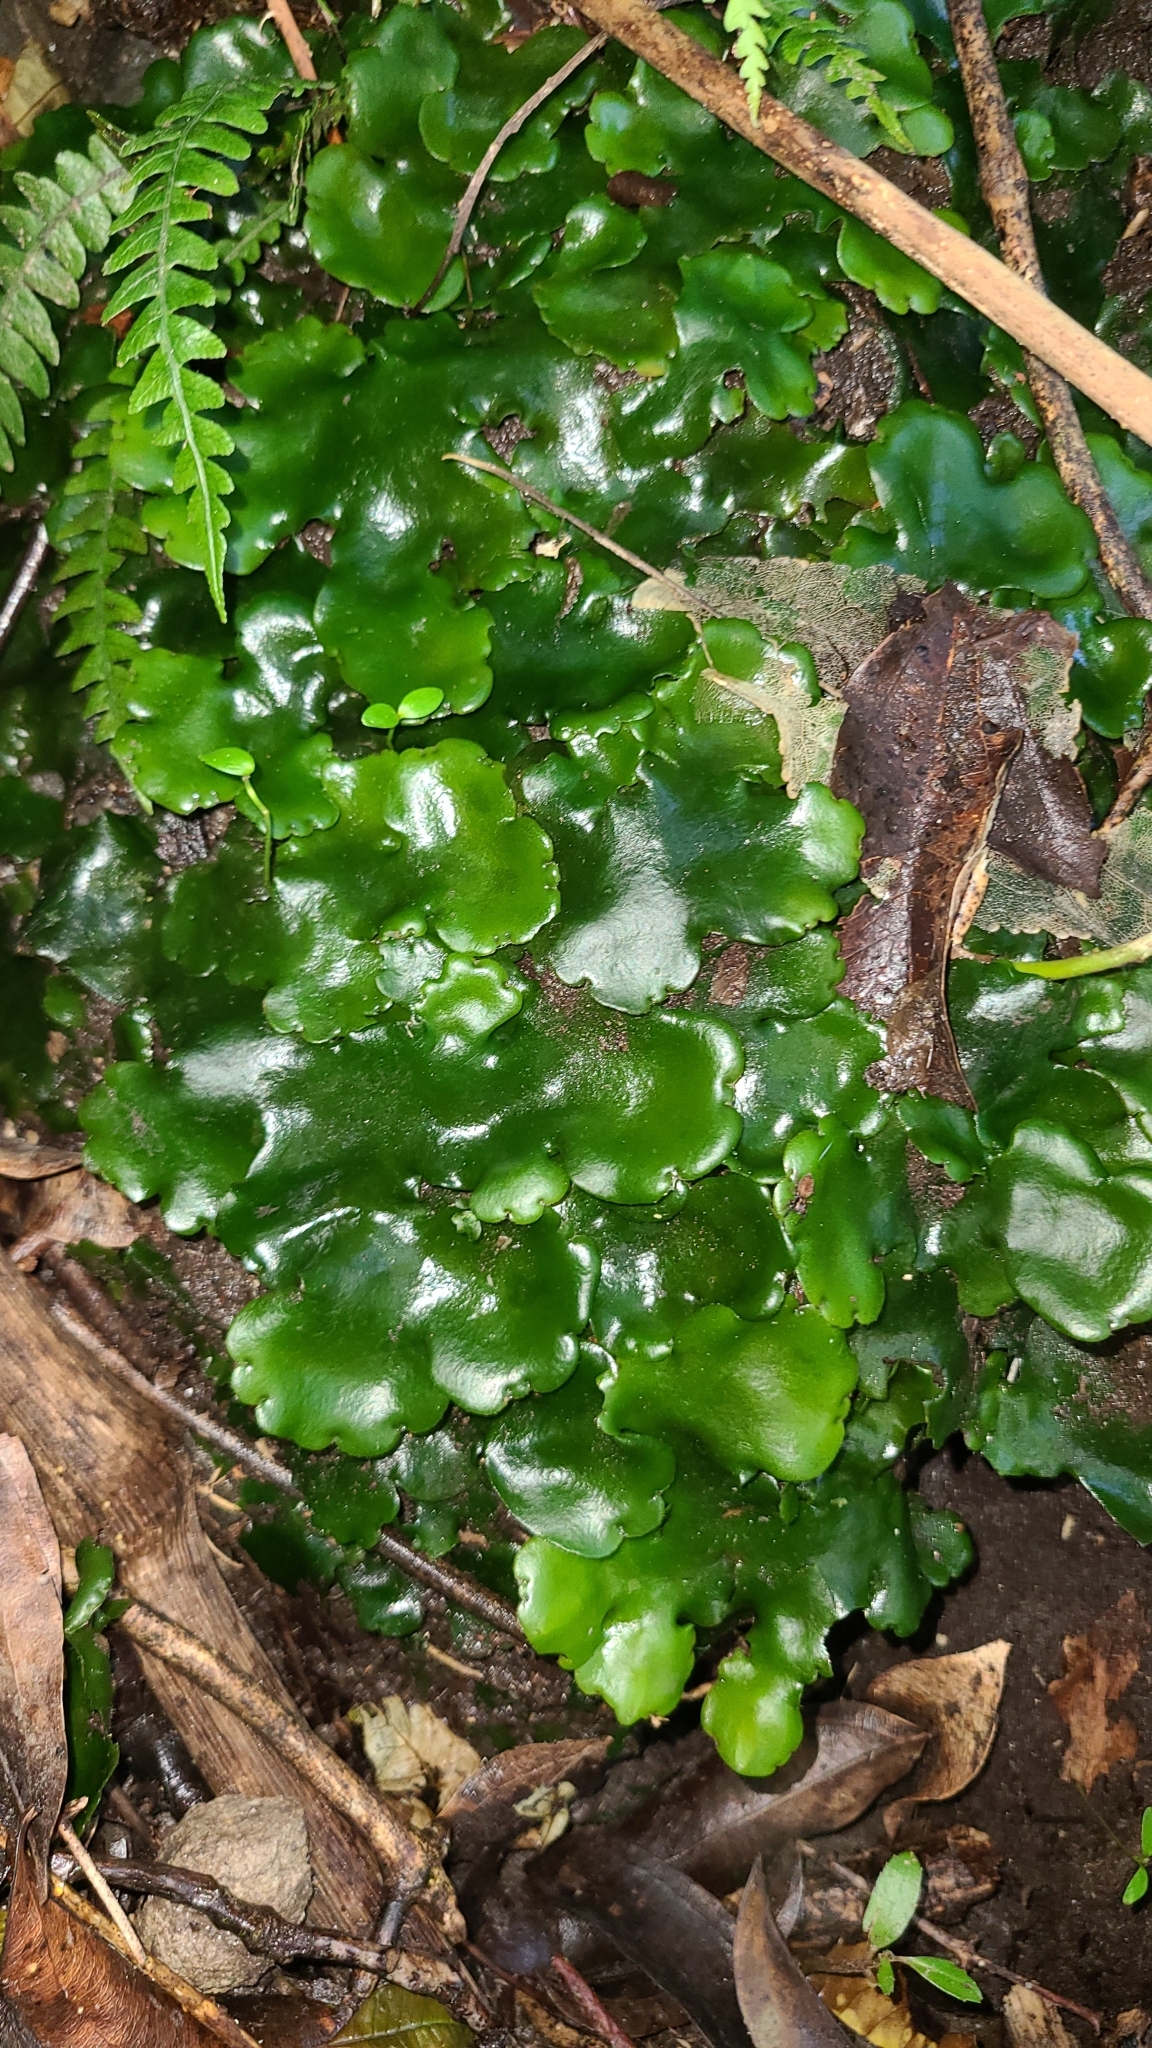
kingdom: Plantae
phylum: Marchantiophyta
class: Marchantiopsida
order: Marchantiales
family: Monocleaceae
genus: Monoclea
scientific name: Monoclea forsteri
